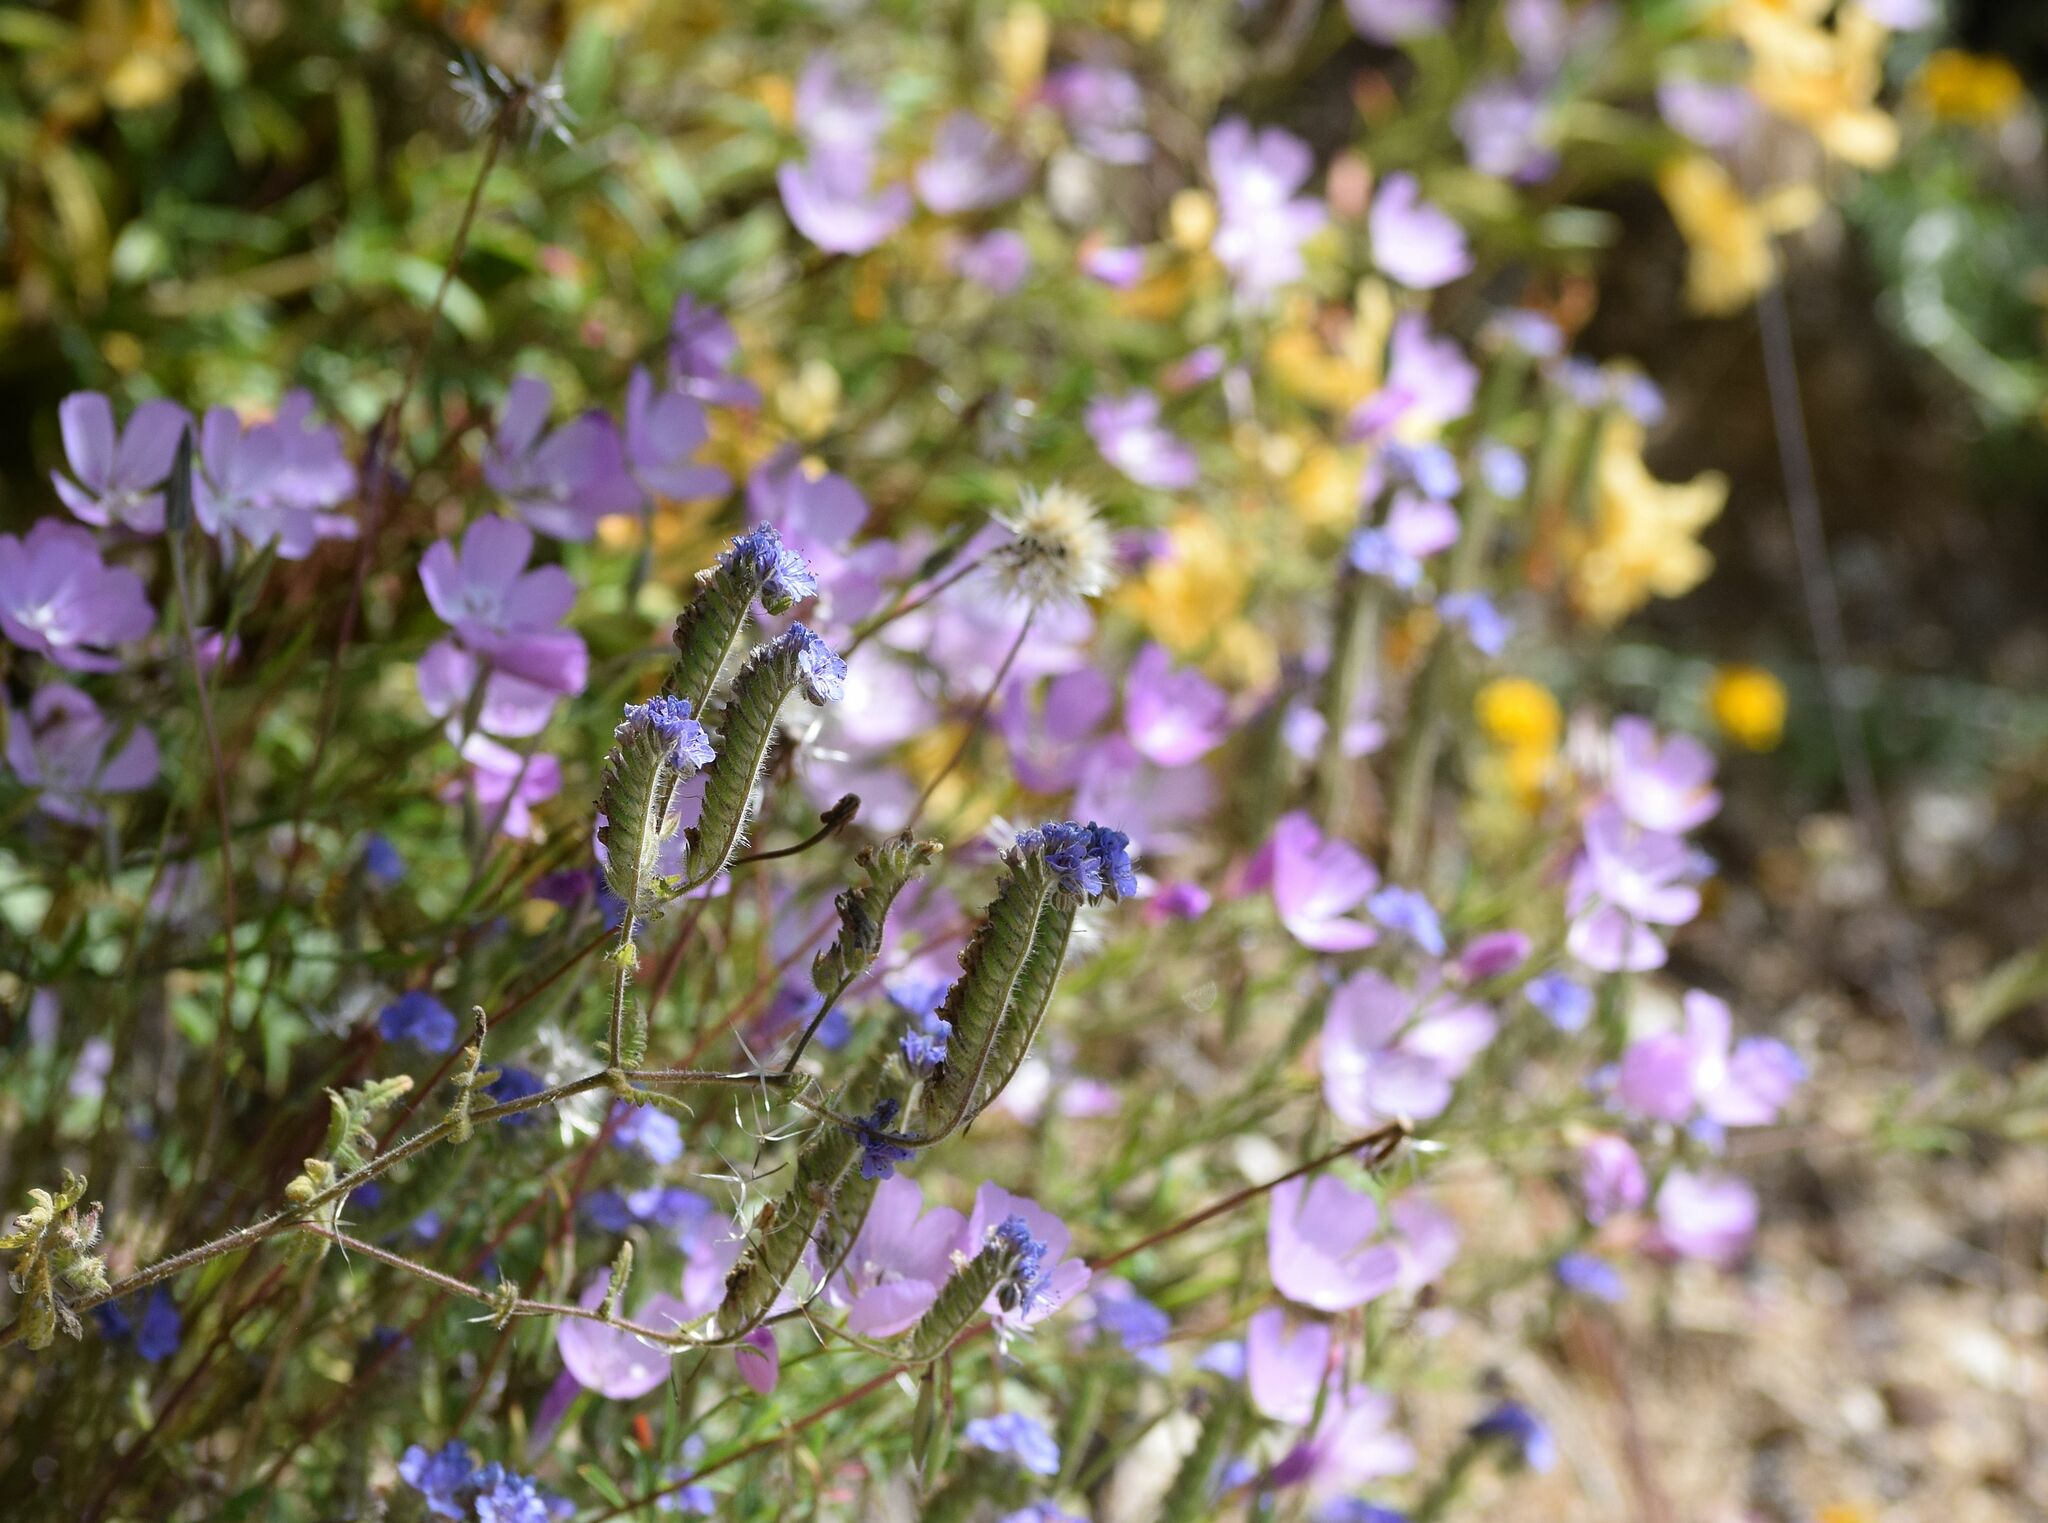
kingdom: Plantae
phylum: Tracheophyta
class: Magnoliopsida
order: Boraginales
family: Hydrophyllaceae
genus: Phacelia
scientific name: Phacelia distans
